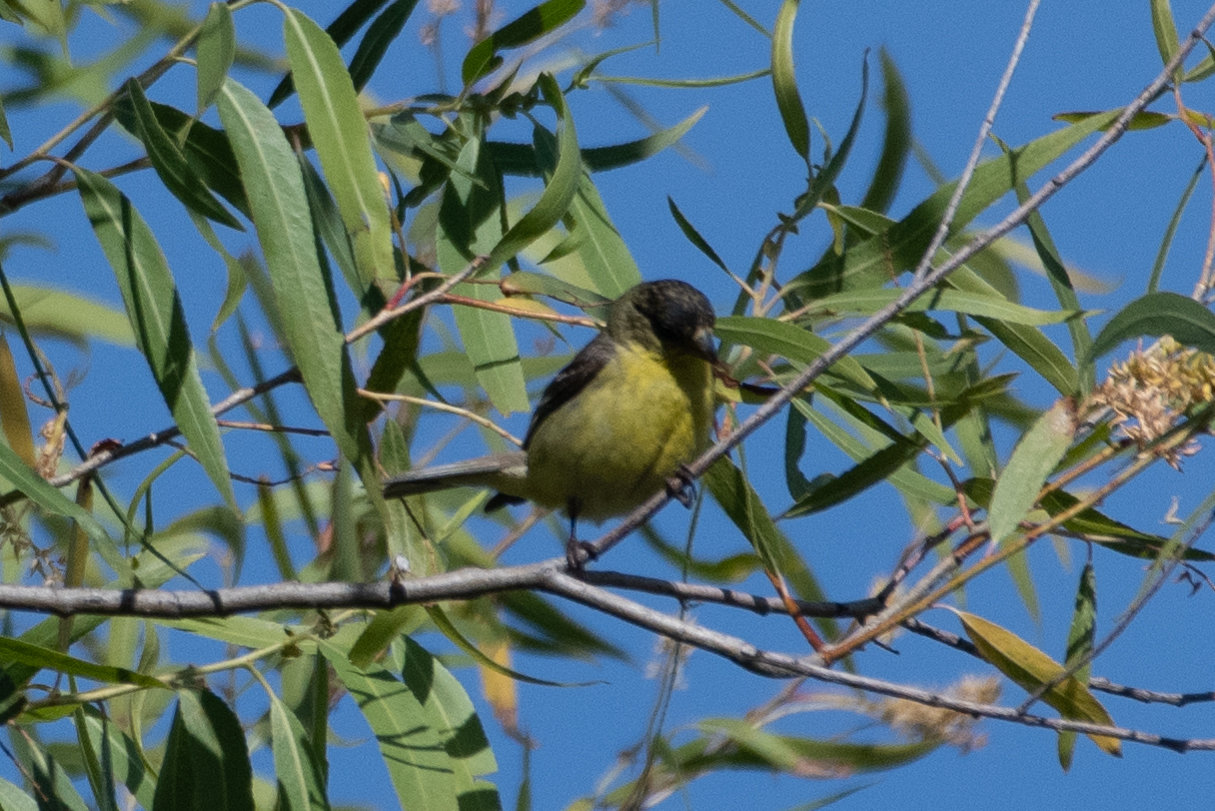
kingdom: Animalia
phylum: Chordata
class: Aves
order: Passeriformes
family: Fringillidae
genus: Spinus
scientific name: Spinus psaltria
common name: Lesser goldfinch
